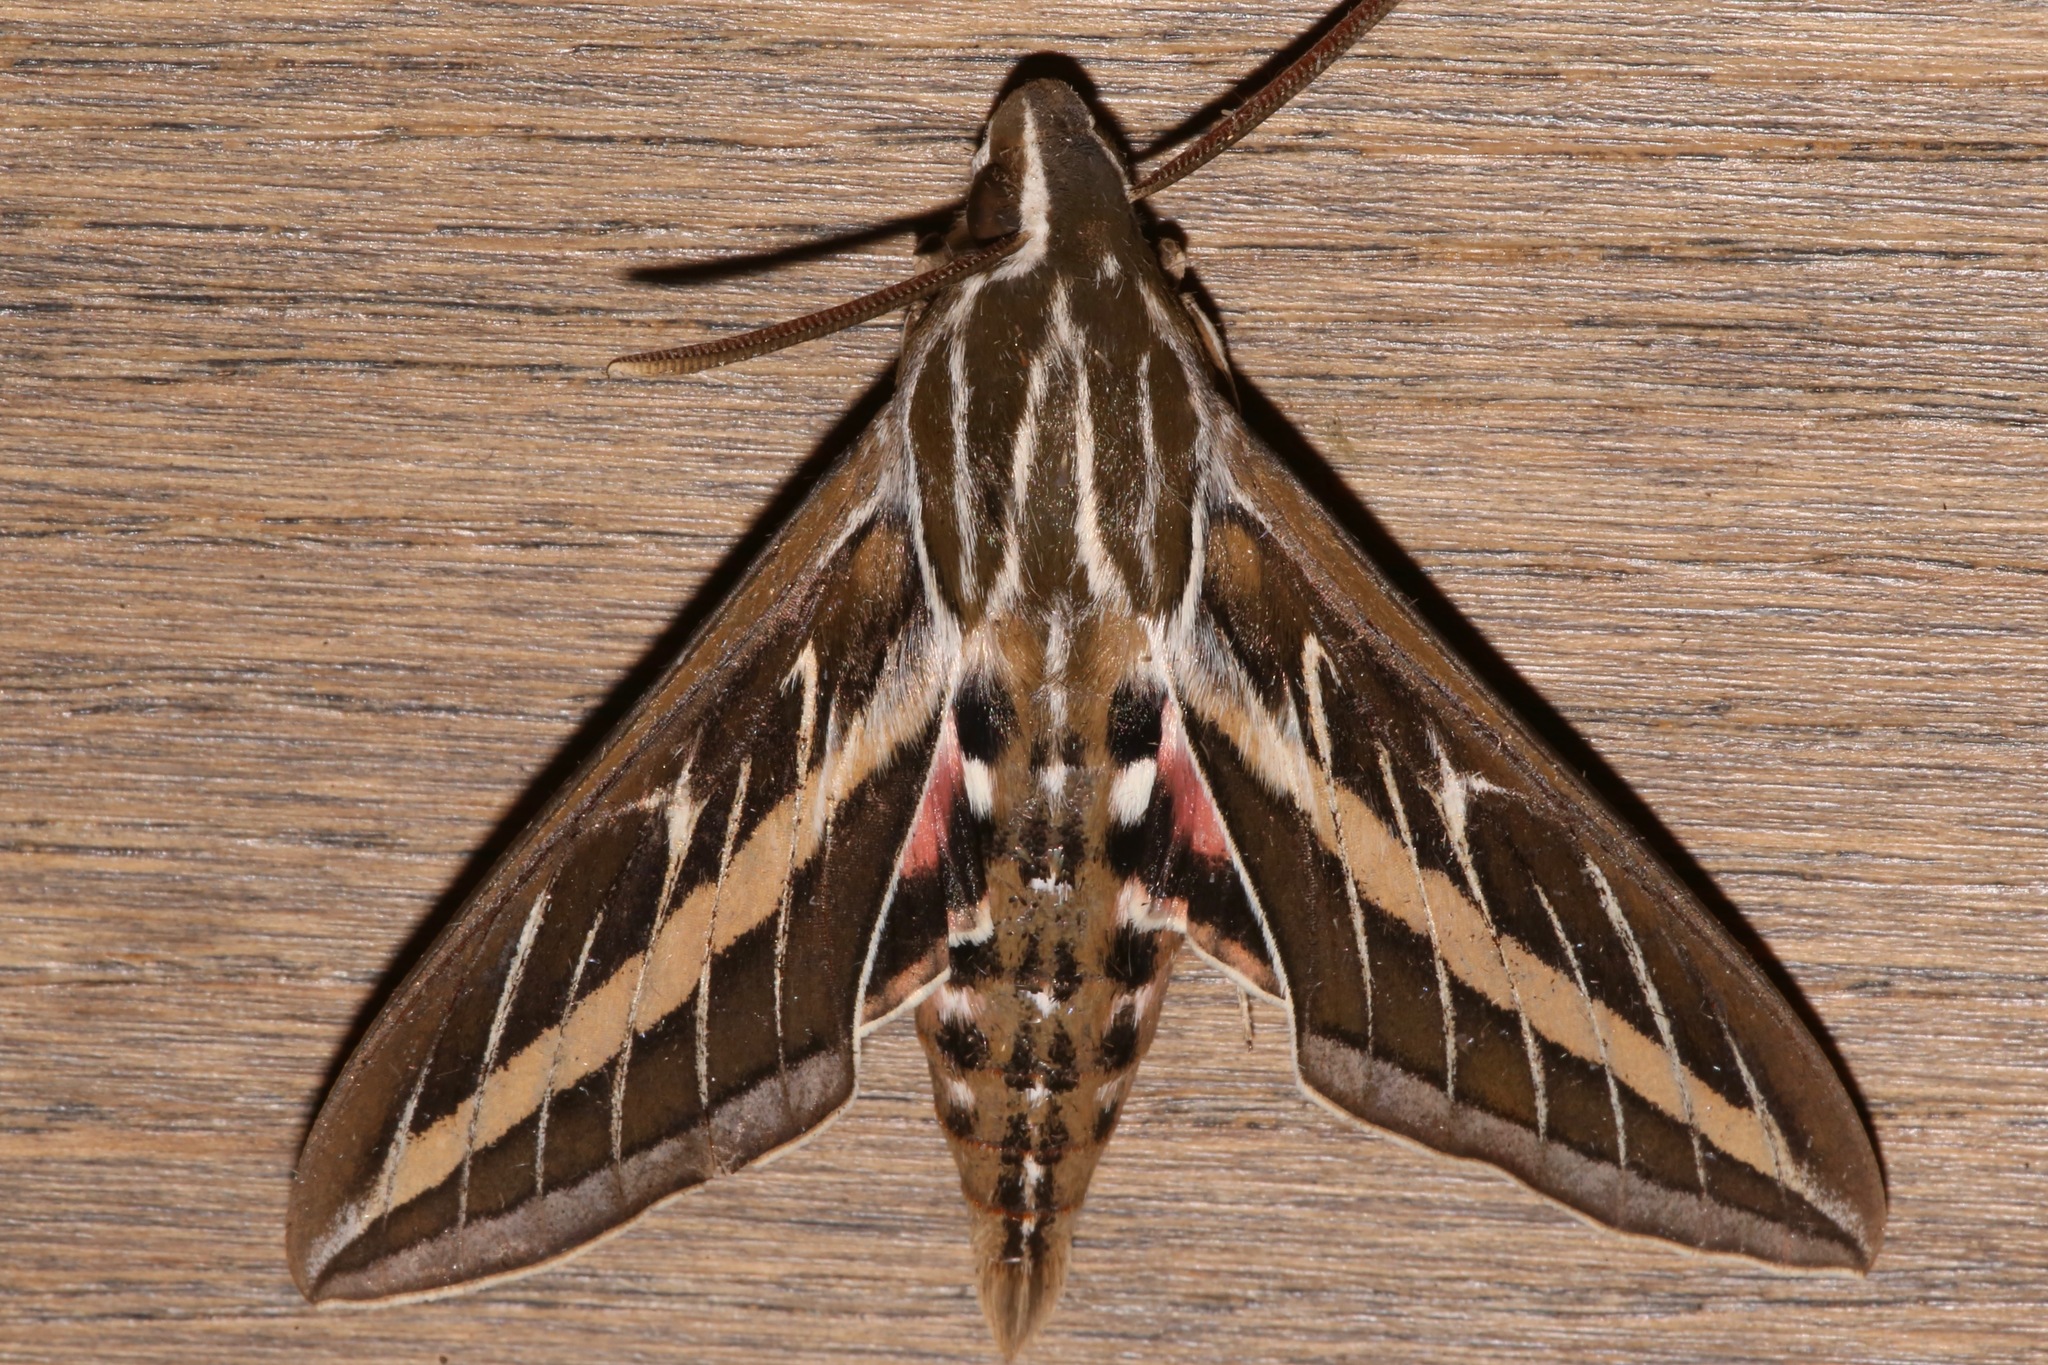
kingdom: Animalia
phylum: Arthropoda
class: Insecta
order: Lepidoptera
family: Sphingidae
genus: Hyles
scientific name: Hyles lineata
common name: White-lined sphinx
